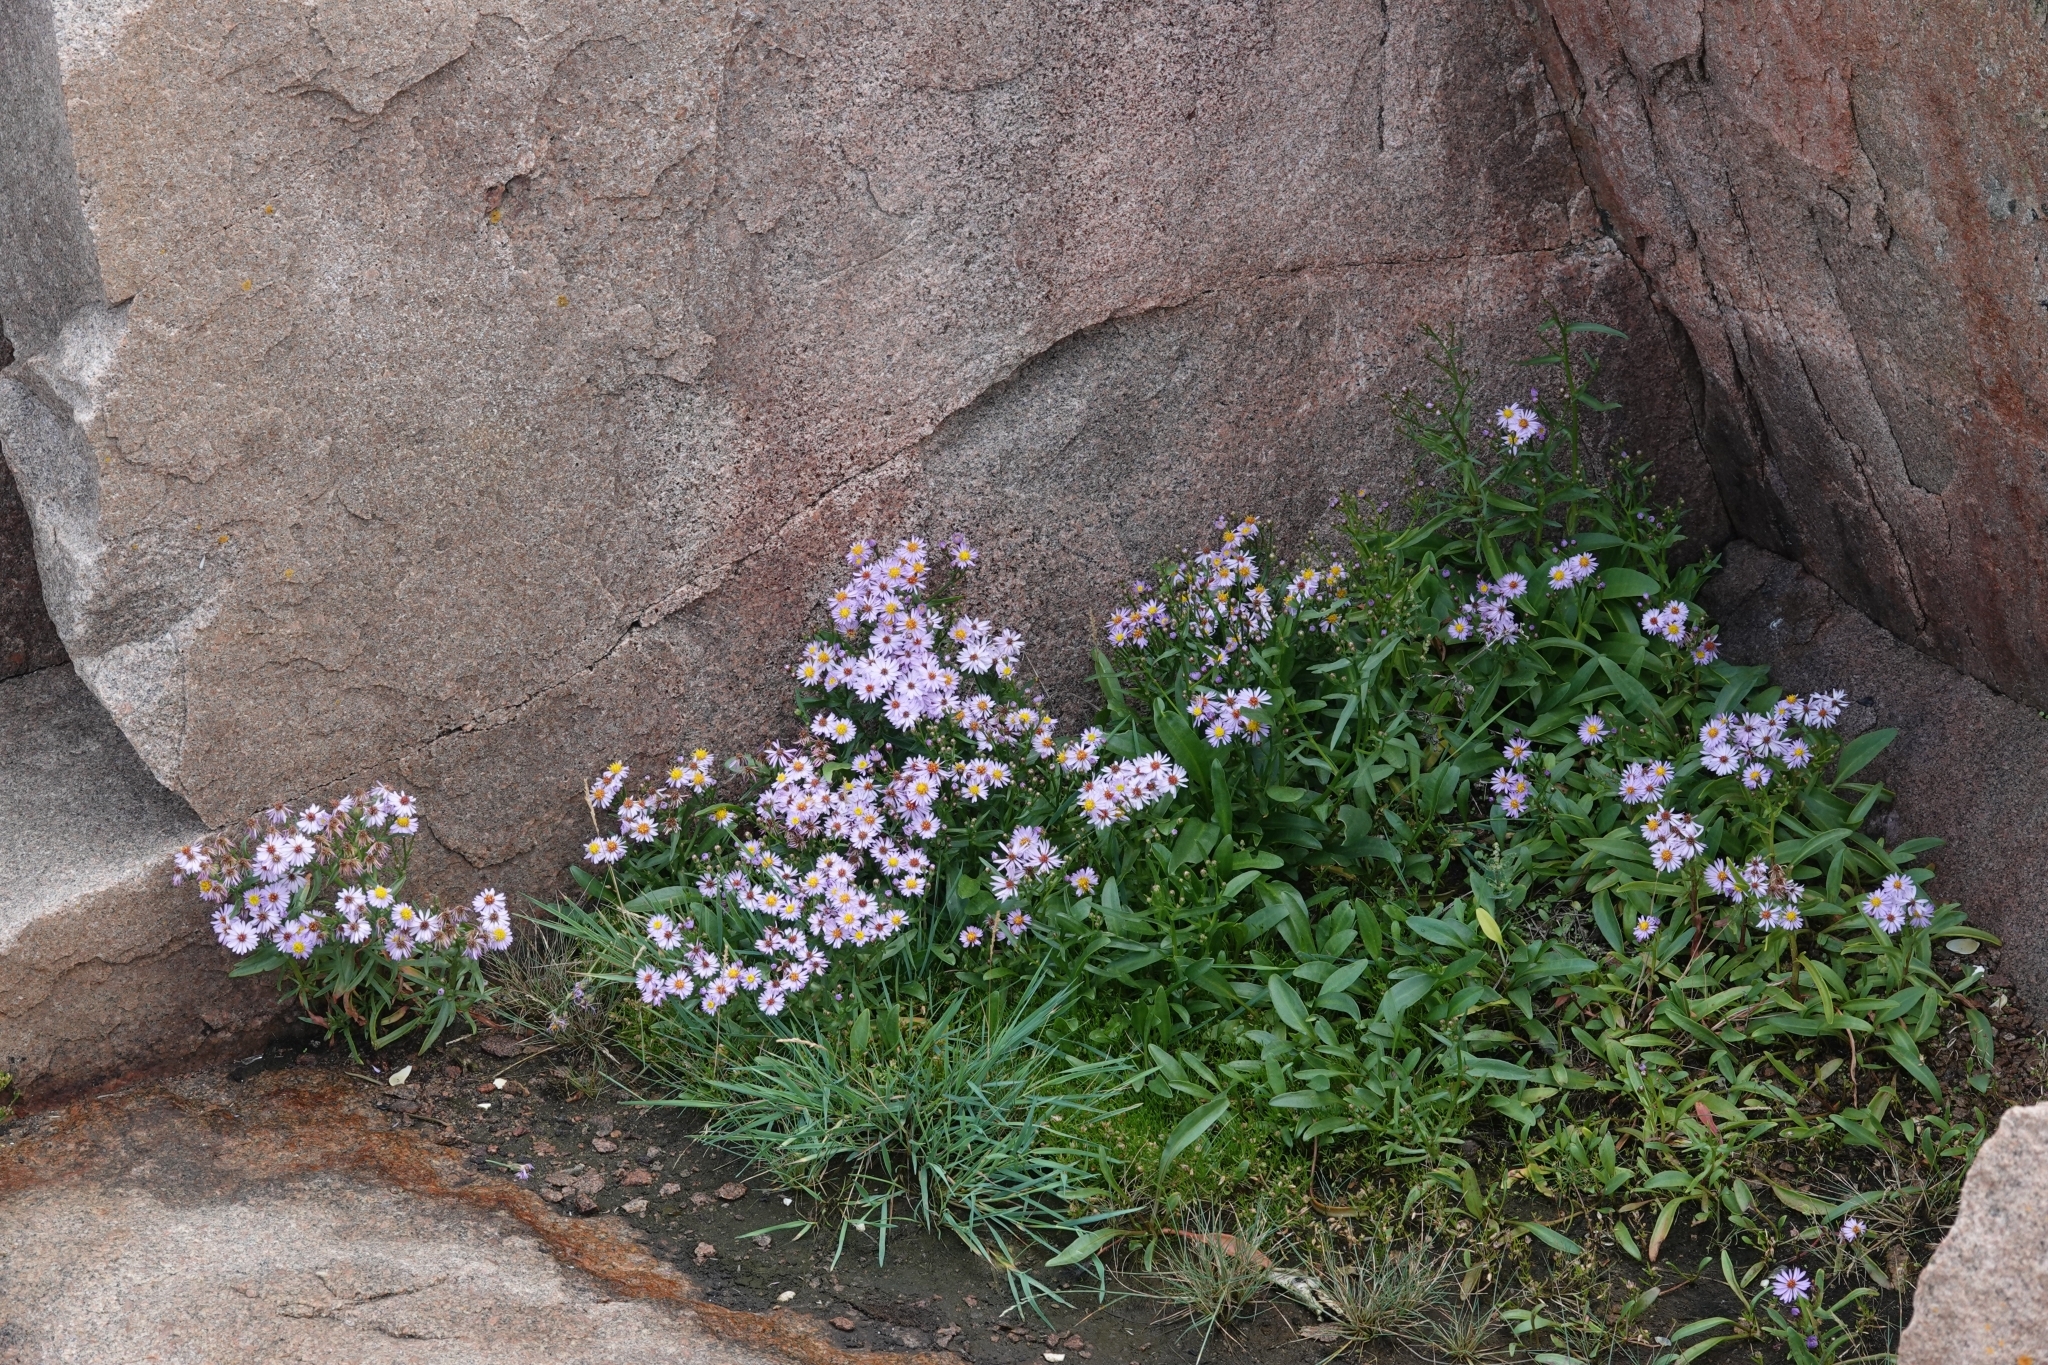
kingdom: Plantae
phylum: Tracheophyta
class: Magnoliopsida
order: Asterales
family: Asteraceae
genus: Tripolium
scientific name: Tripolium pannonicum
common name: Sea aster
